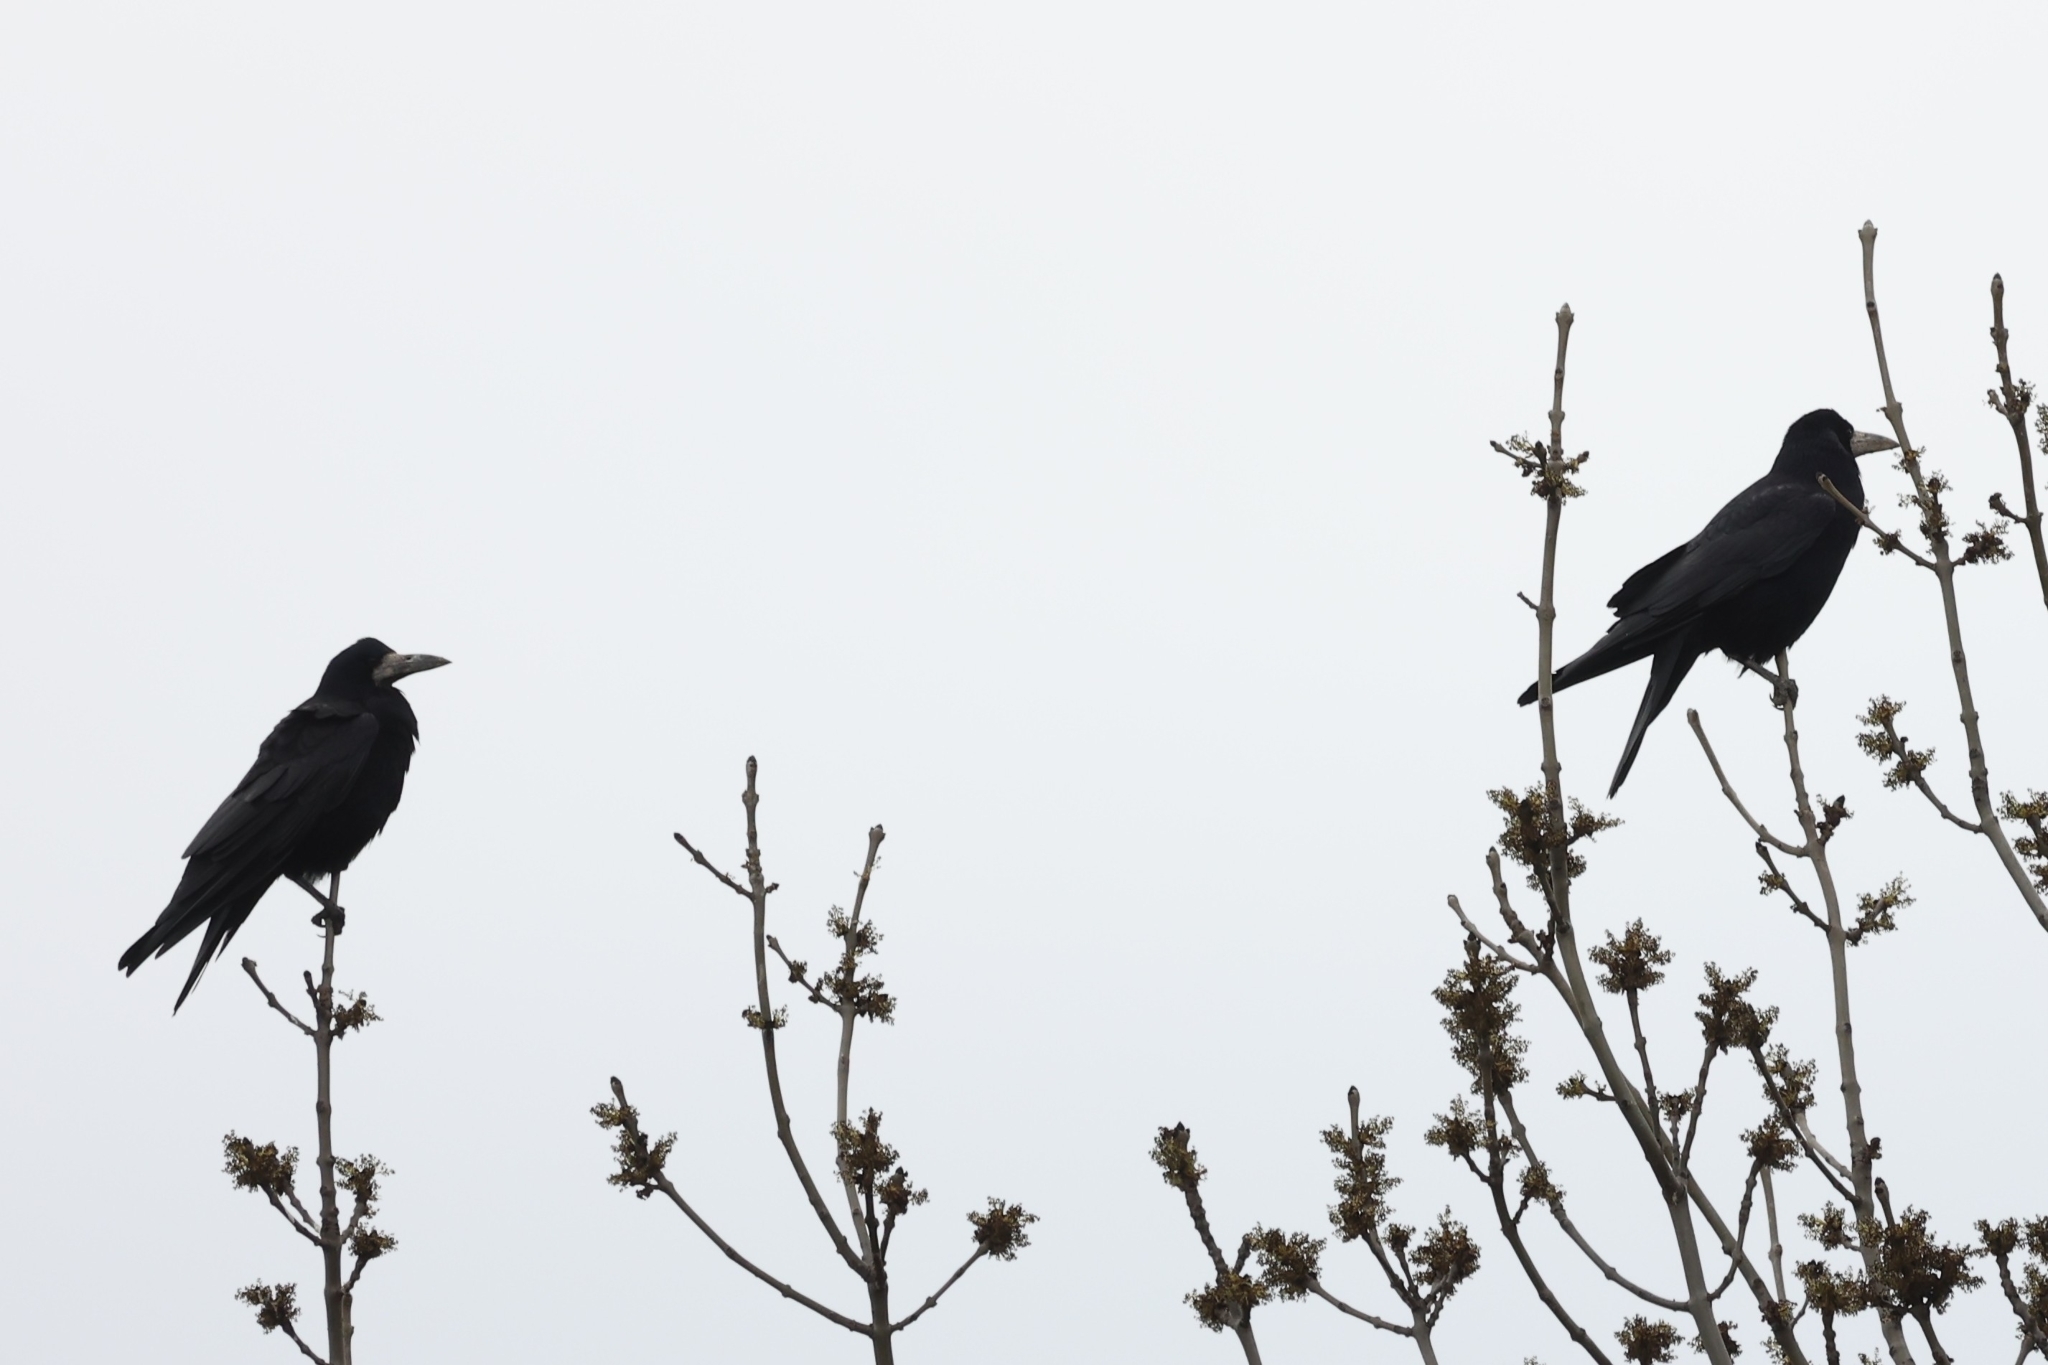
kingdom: Animalia
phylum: Chordata
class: Aves
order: Passeriformes
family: Corvidae
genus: Corvus
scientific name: Corvus frugilegus
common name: Rook
